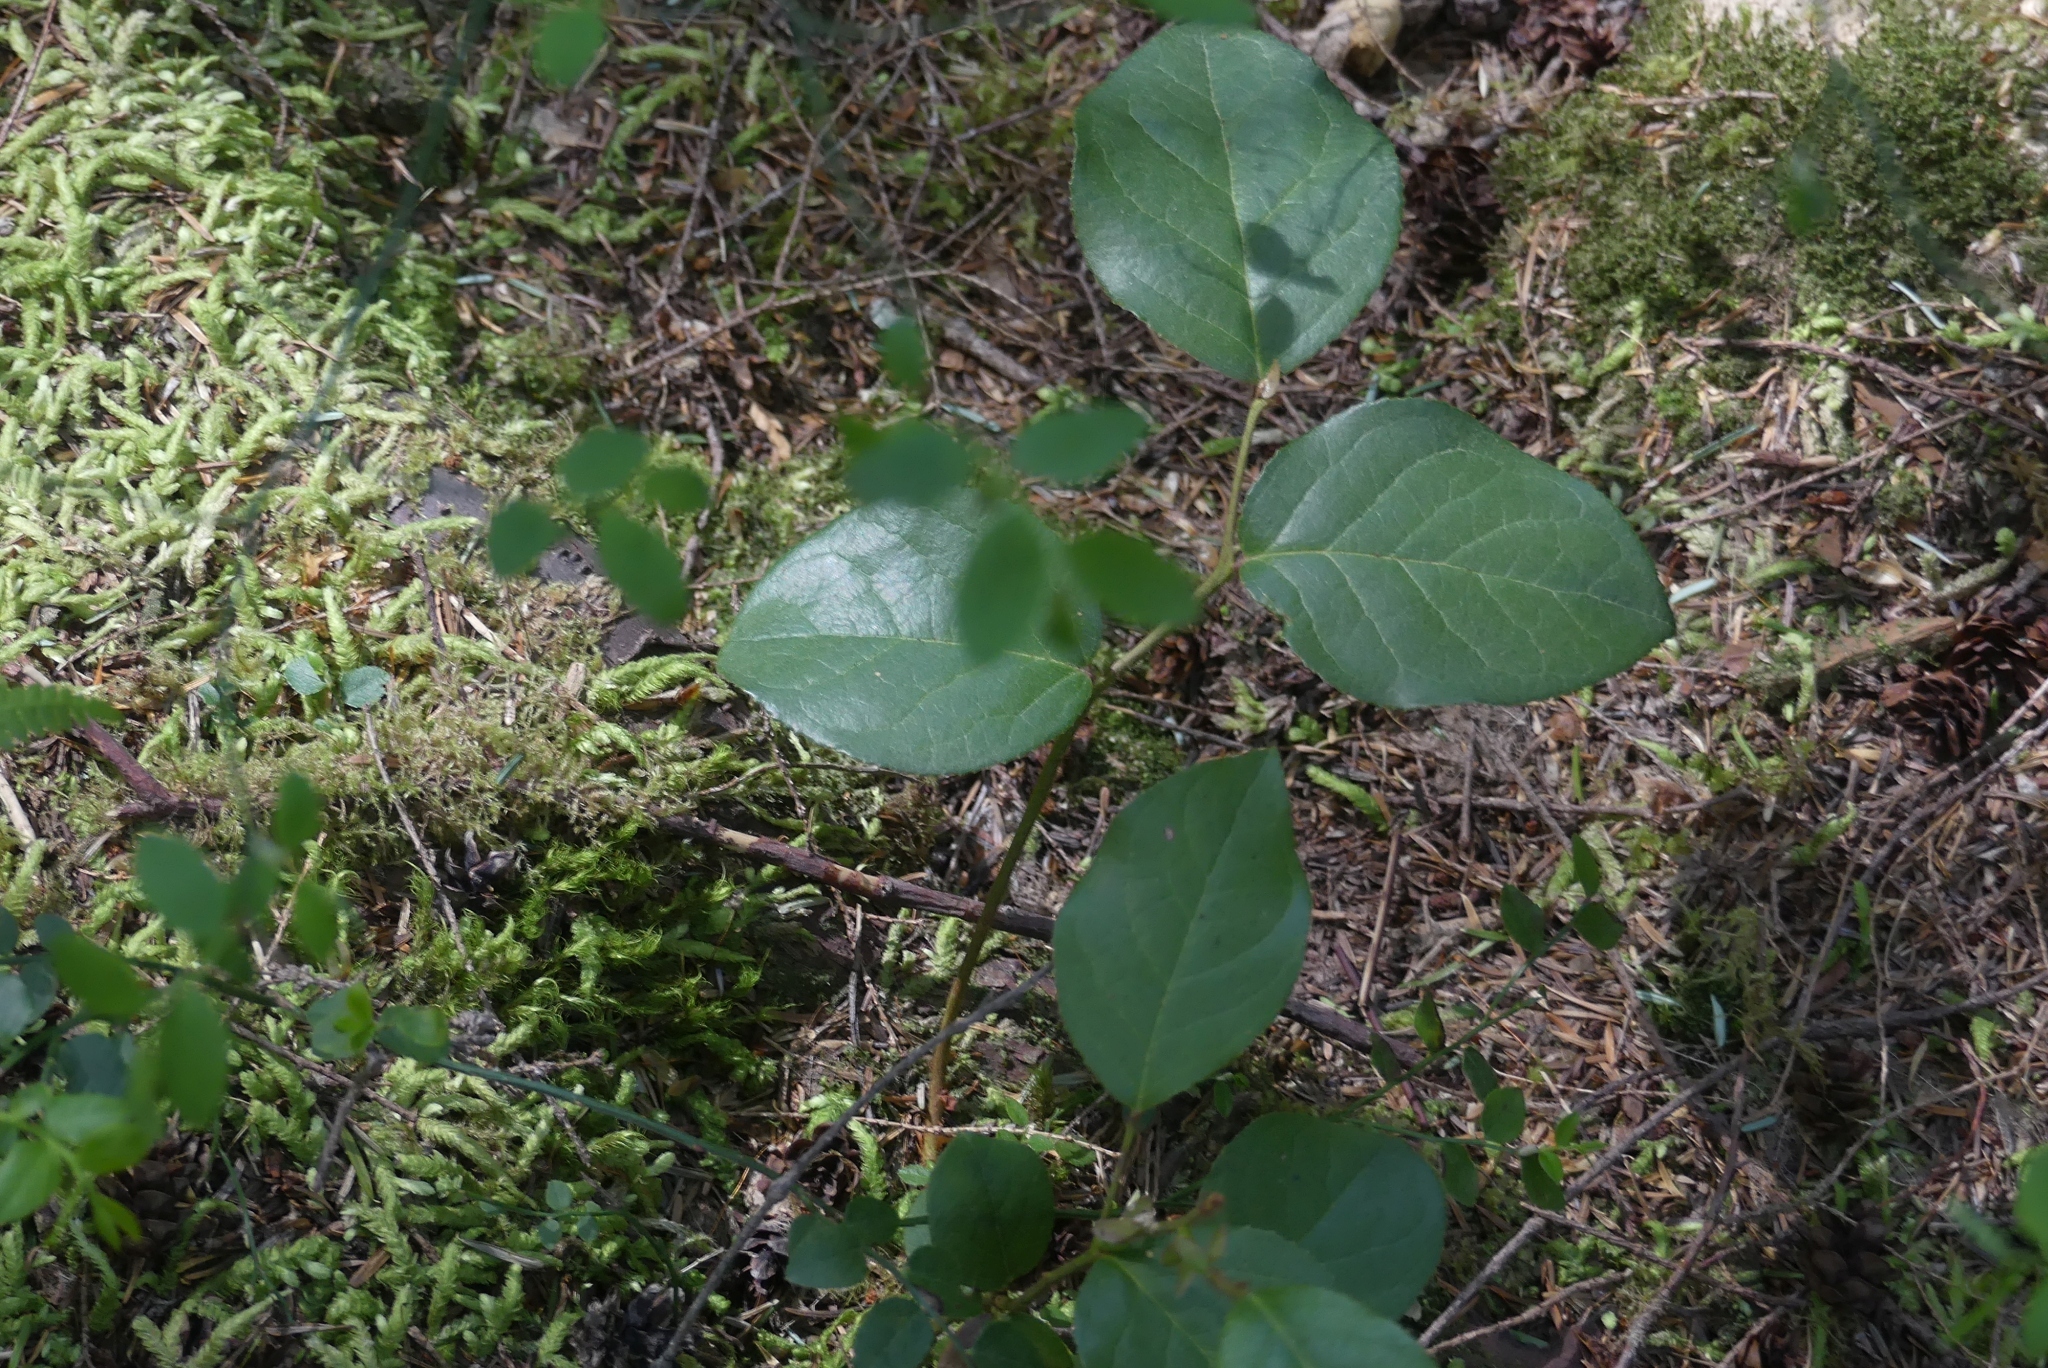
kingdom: Plantae
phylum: Tracheophyta
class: Magnoliopsida
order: Ericales
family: Ericaceae
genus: Gaultheria
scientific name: Gaultheria shallon
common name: Shallon
